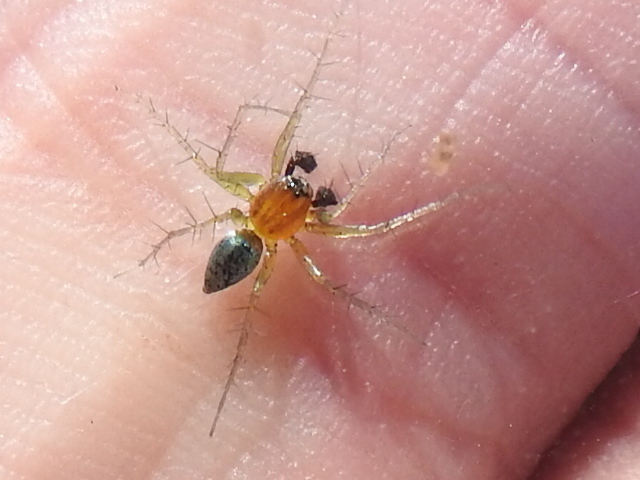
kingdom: Animalia
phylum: Arthropoda
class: Arachnida
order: Araneae
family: Oxyopidae
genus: Oxyopes
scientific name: Oxyopes salticus
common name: Lynx spiders
